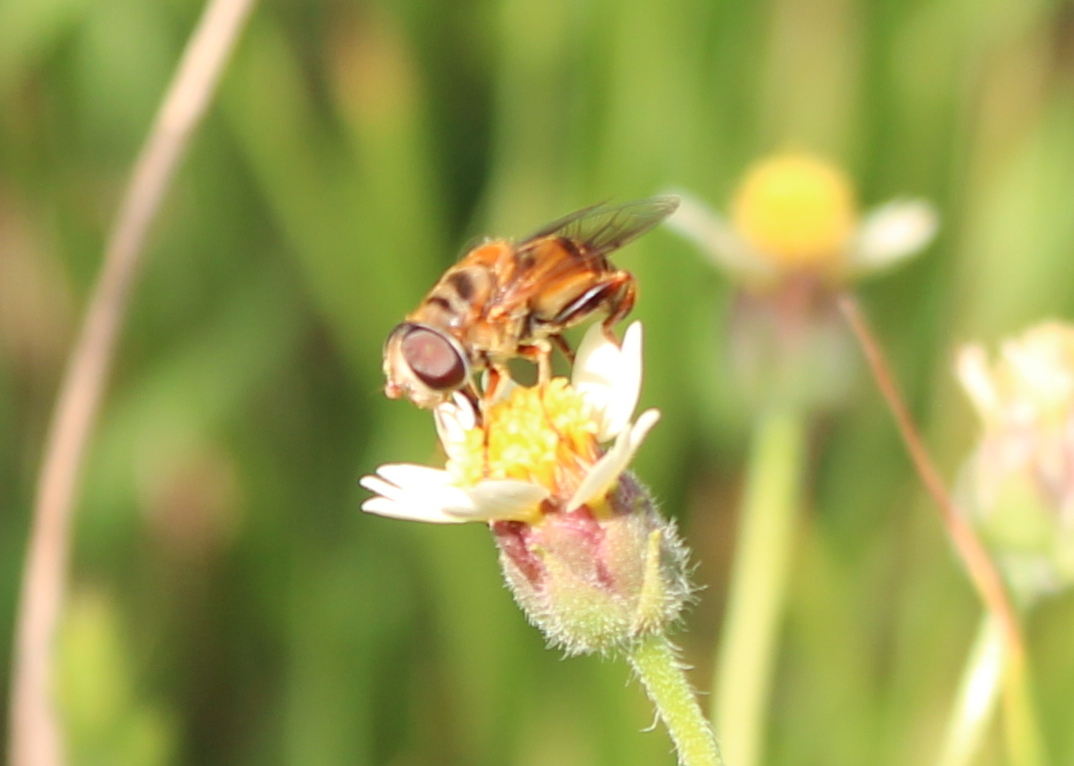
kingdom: Animalia
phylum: Arthropoda
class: Insecta
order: Diptera
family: Syrphidae
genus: Palpada
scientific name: Palpada vinetorum
